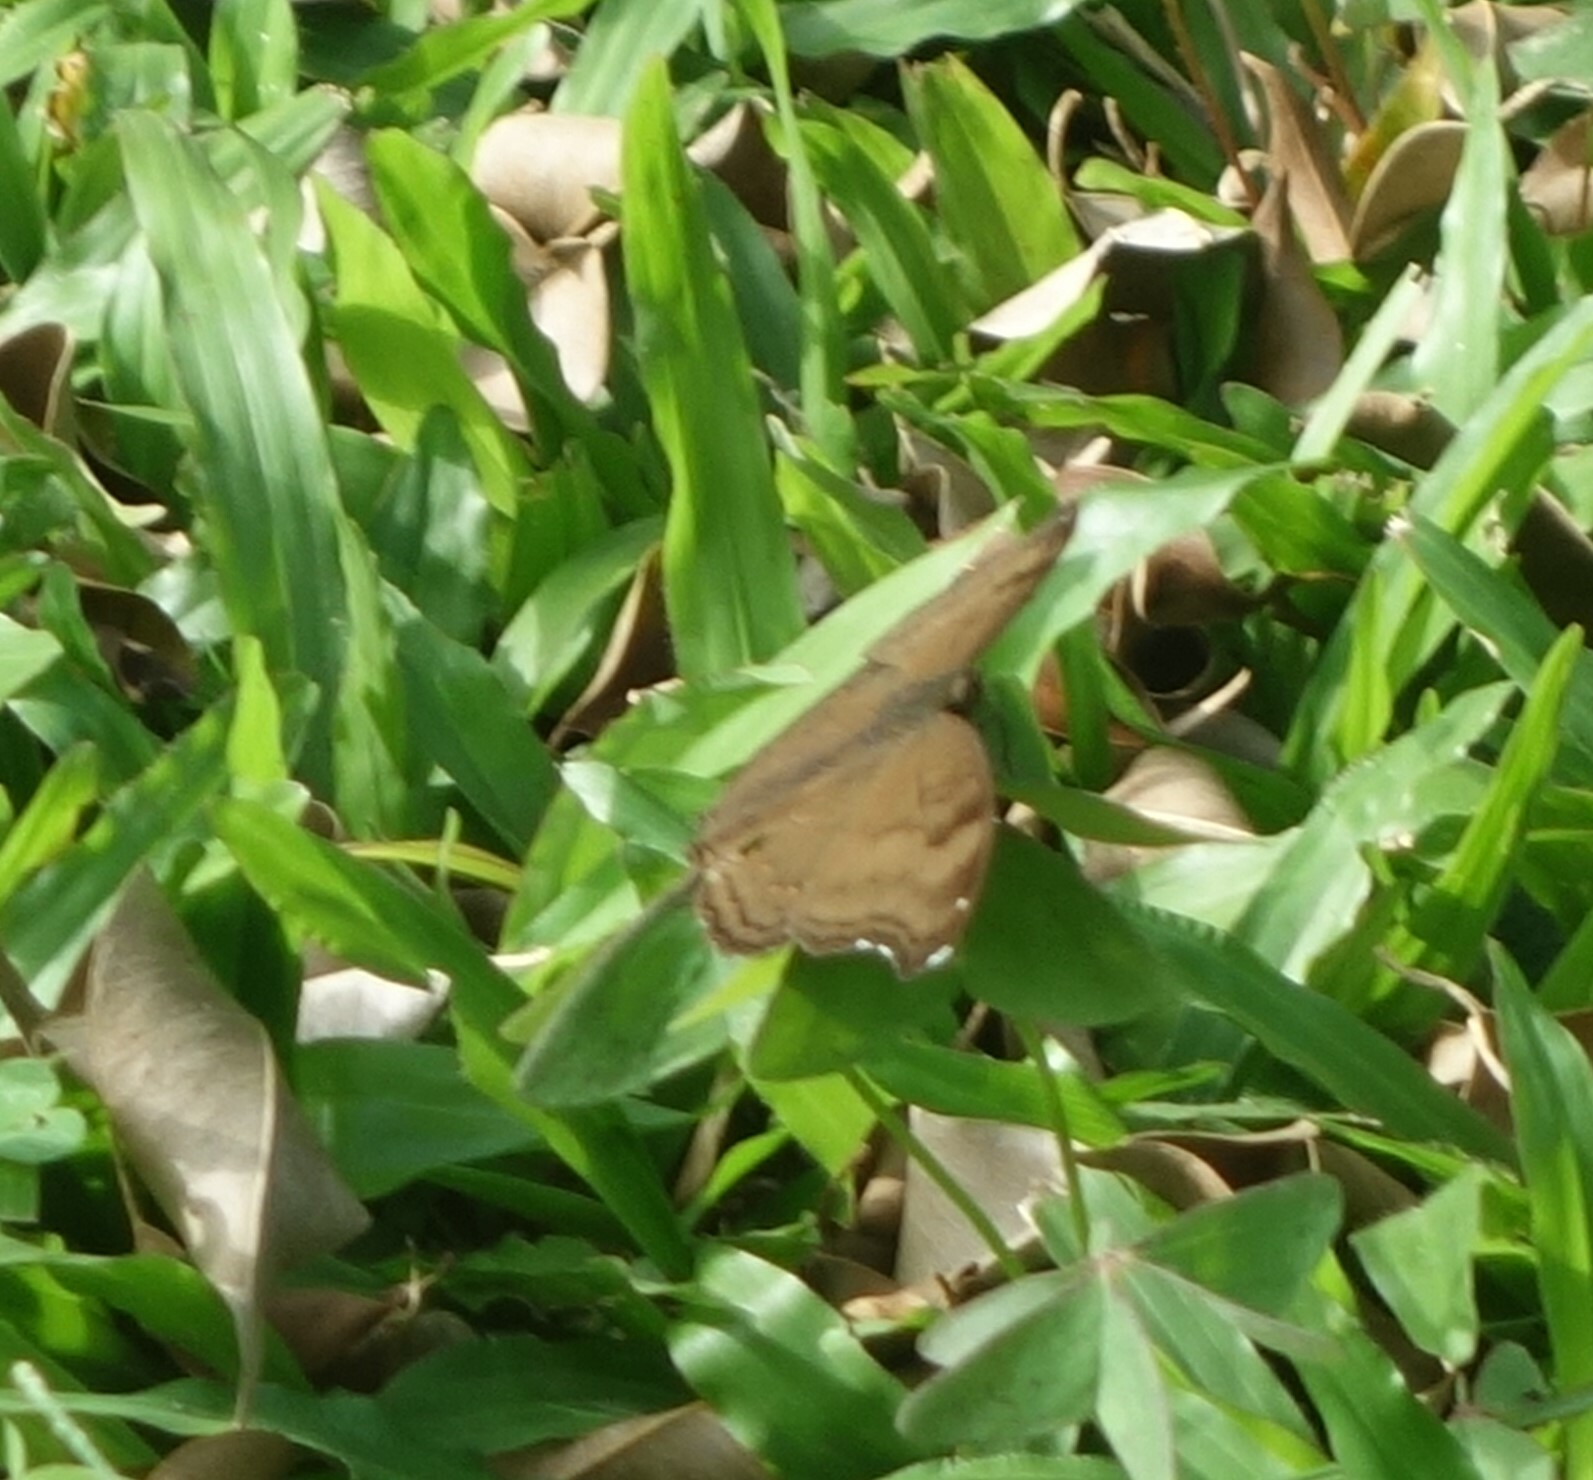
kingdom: Animalia
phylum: Arthropoda
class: Insecta
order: Lepidoptera
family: Nymphalidae
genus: Junonia
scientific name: Junonia iphita
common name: Chocolate pansy
